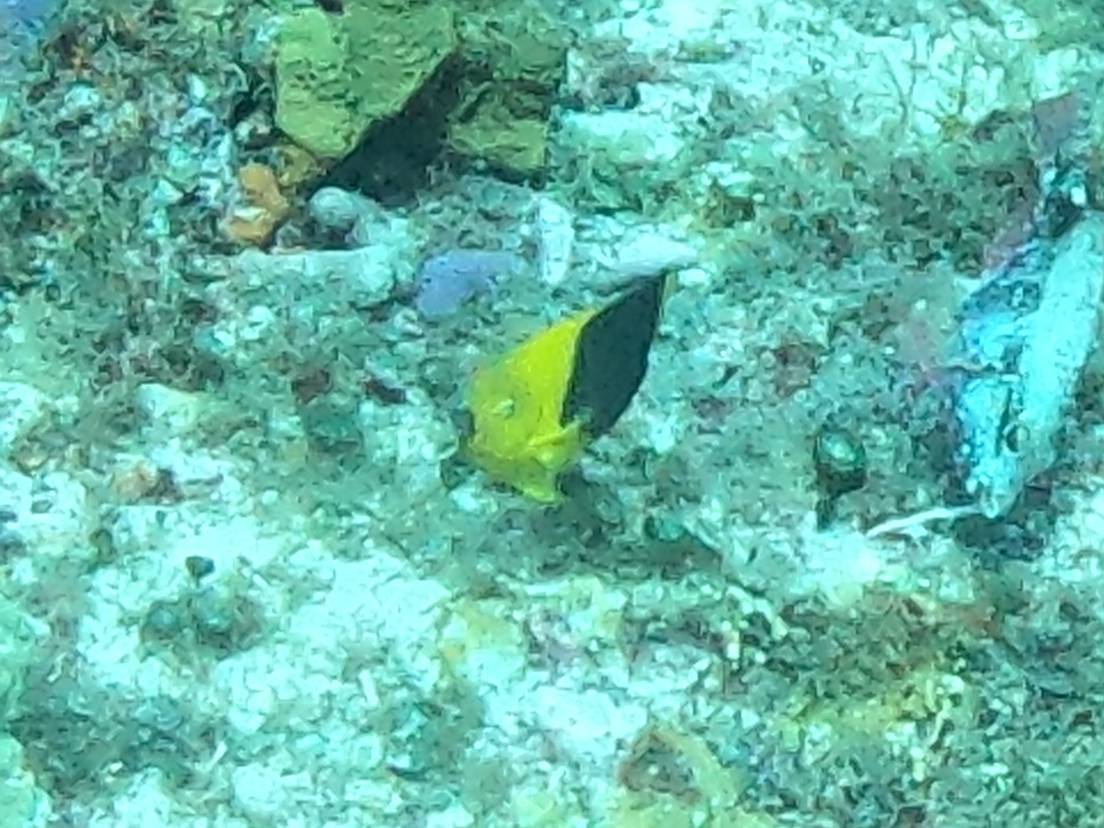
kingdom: Animalia
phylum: Chordata
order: Perciformes
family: Pomacanthidae
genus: Holacanthus
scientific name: Holacanthus tricolor
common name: Rock beauty
